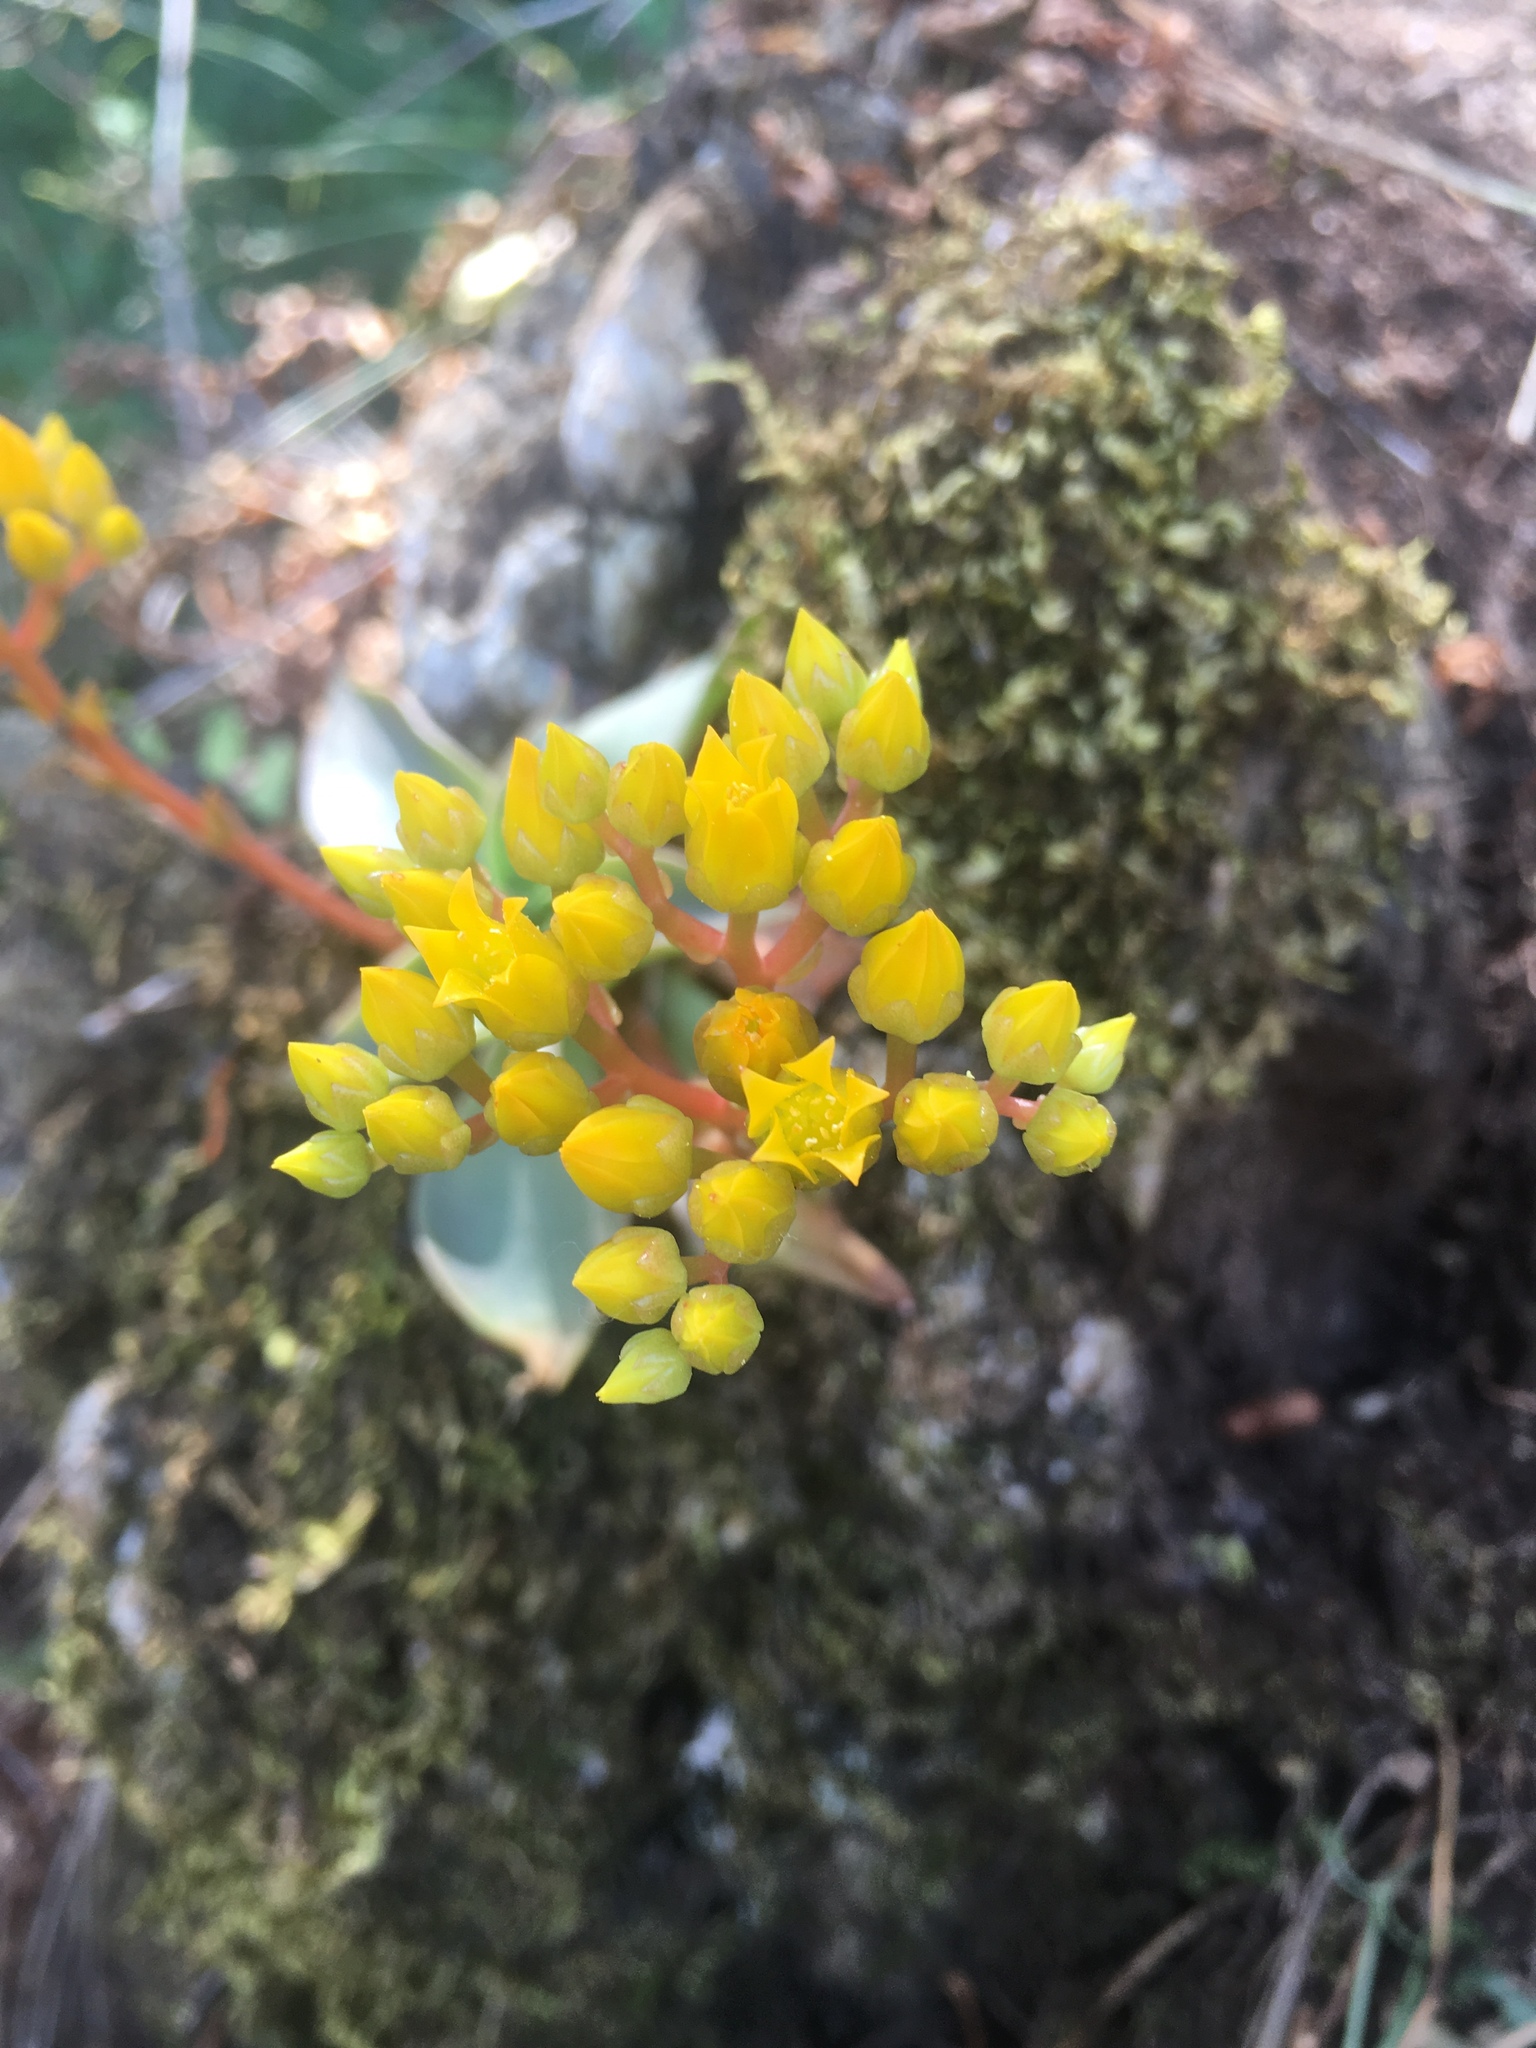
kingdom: Plantae
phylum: Tracheophyta
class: Magnoliopsida
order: Saxifragales
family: Crassulaceae
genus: Dudleya
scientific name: Dudleya cymosa
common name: Canyon dudleya
